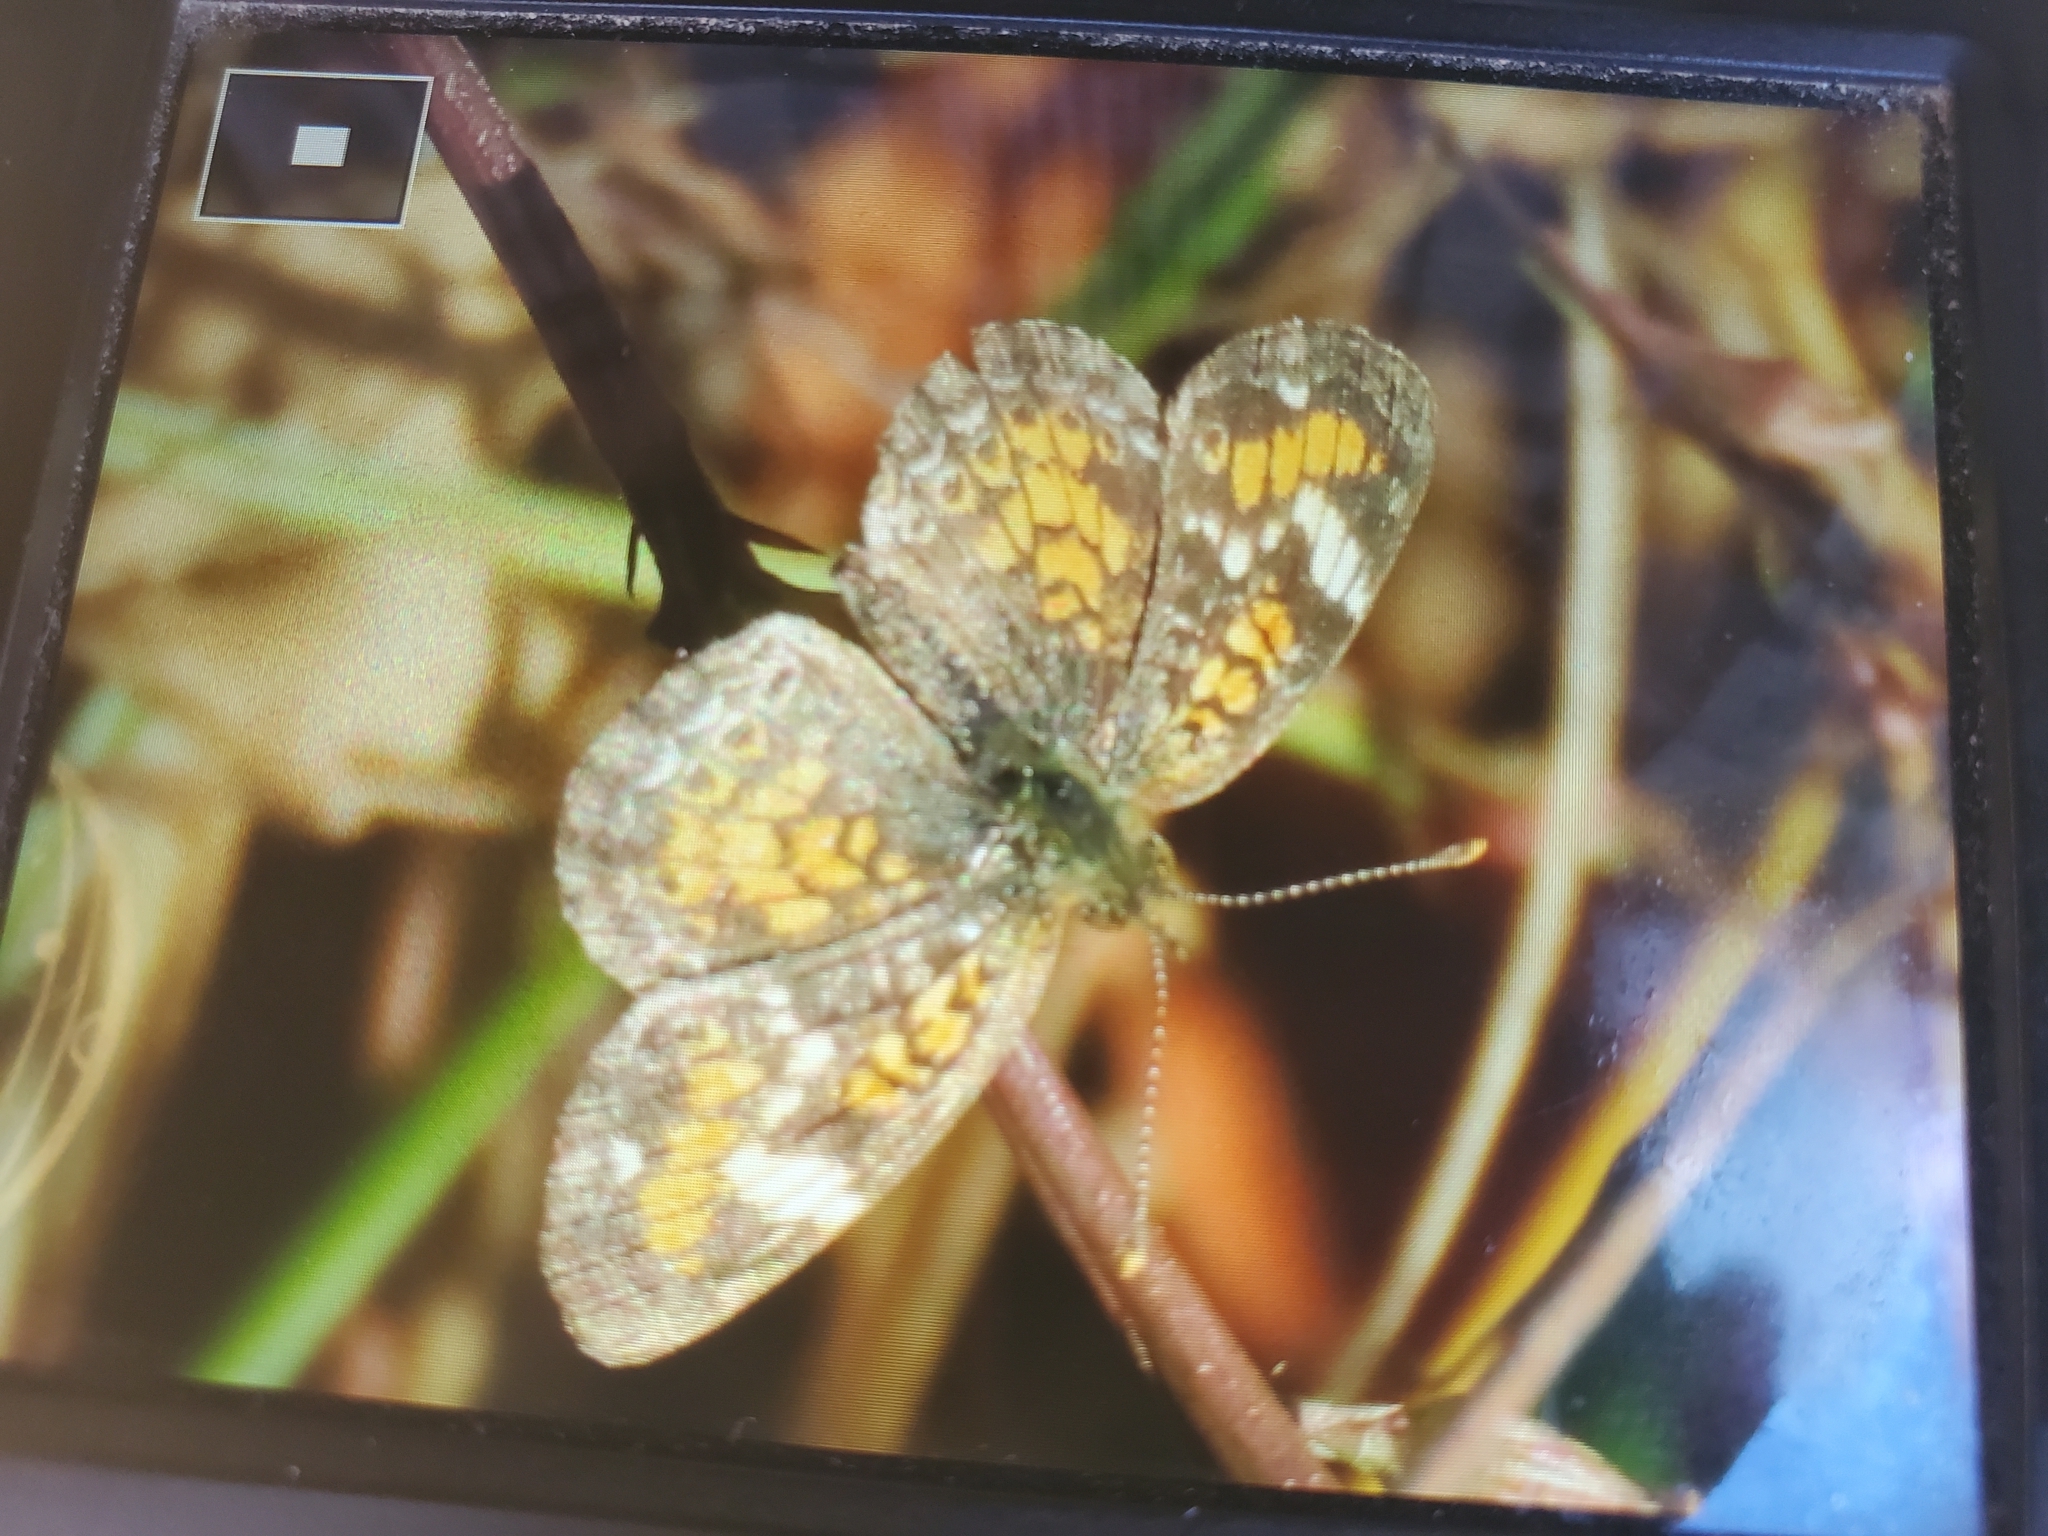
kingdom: Animalia
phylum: Arthropoda
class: Insecta
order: Lepidoptera
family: Nymphalidae
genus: Phyciodes
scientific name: Phyciodes phaon
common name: Phaon crescent
